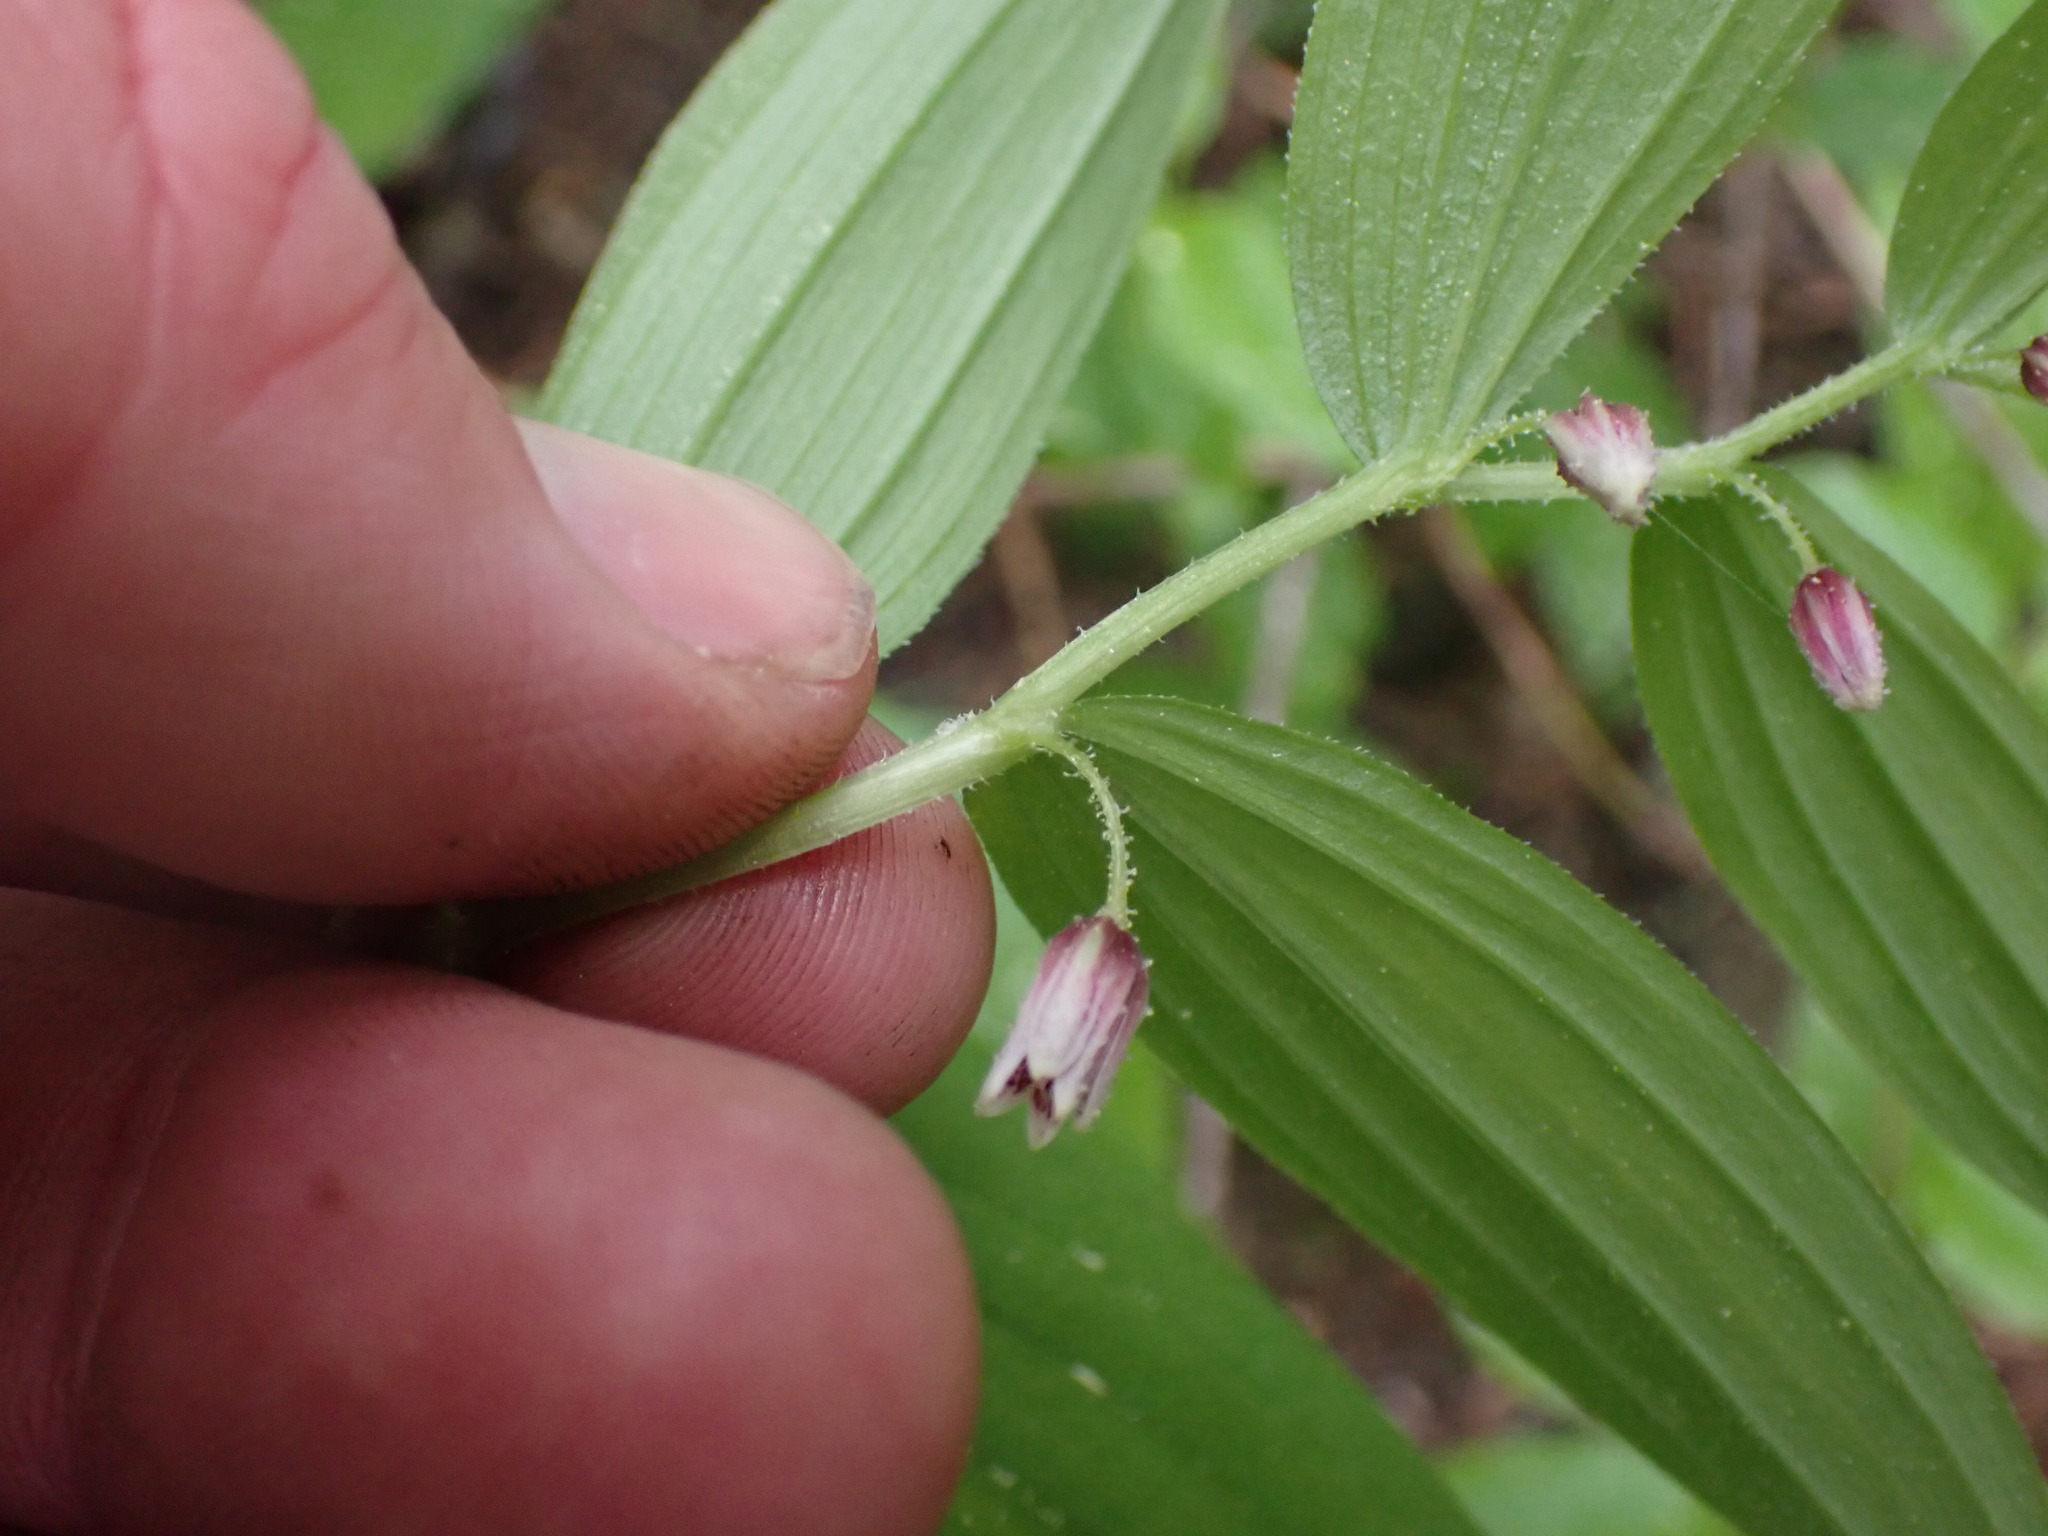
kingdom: Plantae
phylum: Tracheophyta
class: Liliopsida
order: Liliales
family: Liliaceae
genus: Streptopus
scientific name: Streptopus lanceolatus
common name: Rose mandarin
